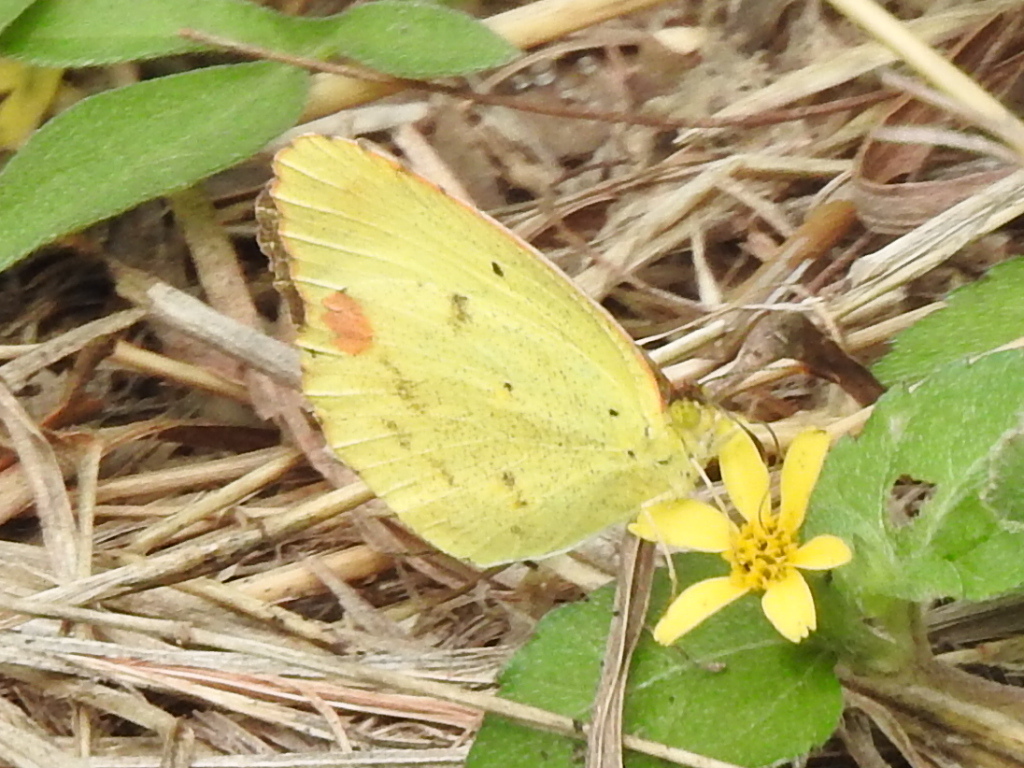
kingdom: Animalia
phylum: Arthropoda
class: Insecta
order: Lepidoptera
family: Pieridae
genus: Pyrisitia
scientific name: Pyrisitia lisa
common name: Little yellow
